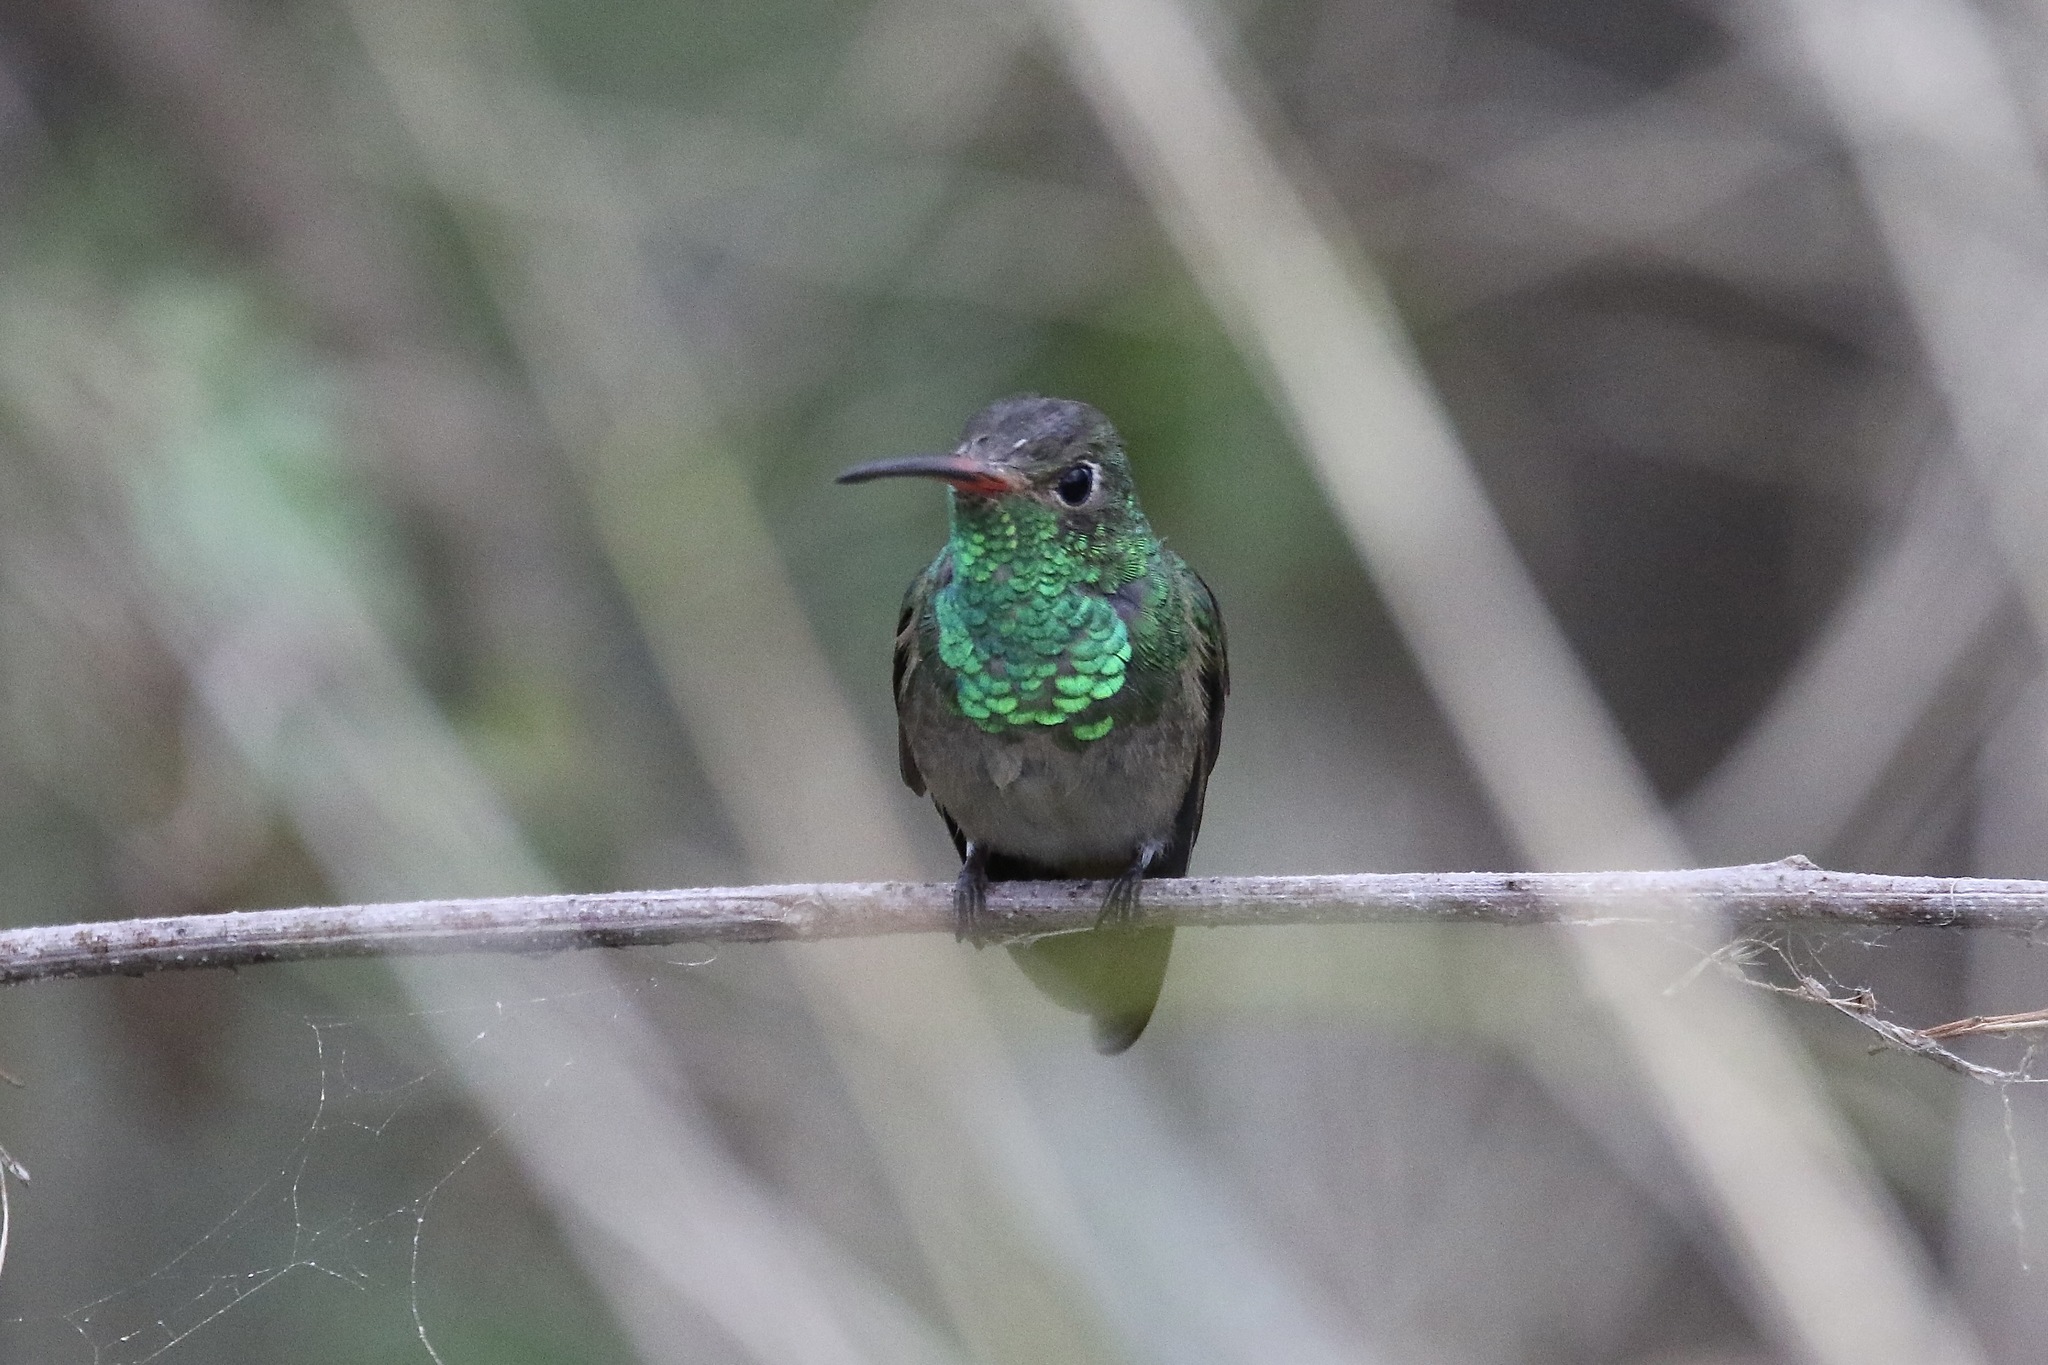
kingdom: Animalia
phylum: Chordata
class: Aves
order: Apodiformes
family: Trochilidae
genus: Amazilia
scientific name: Amazilia yucatanensis
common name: Buff-bellied hummingbird
